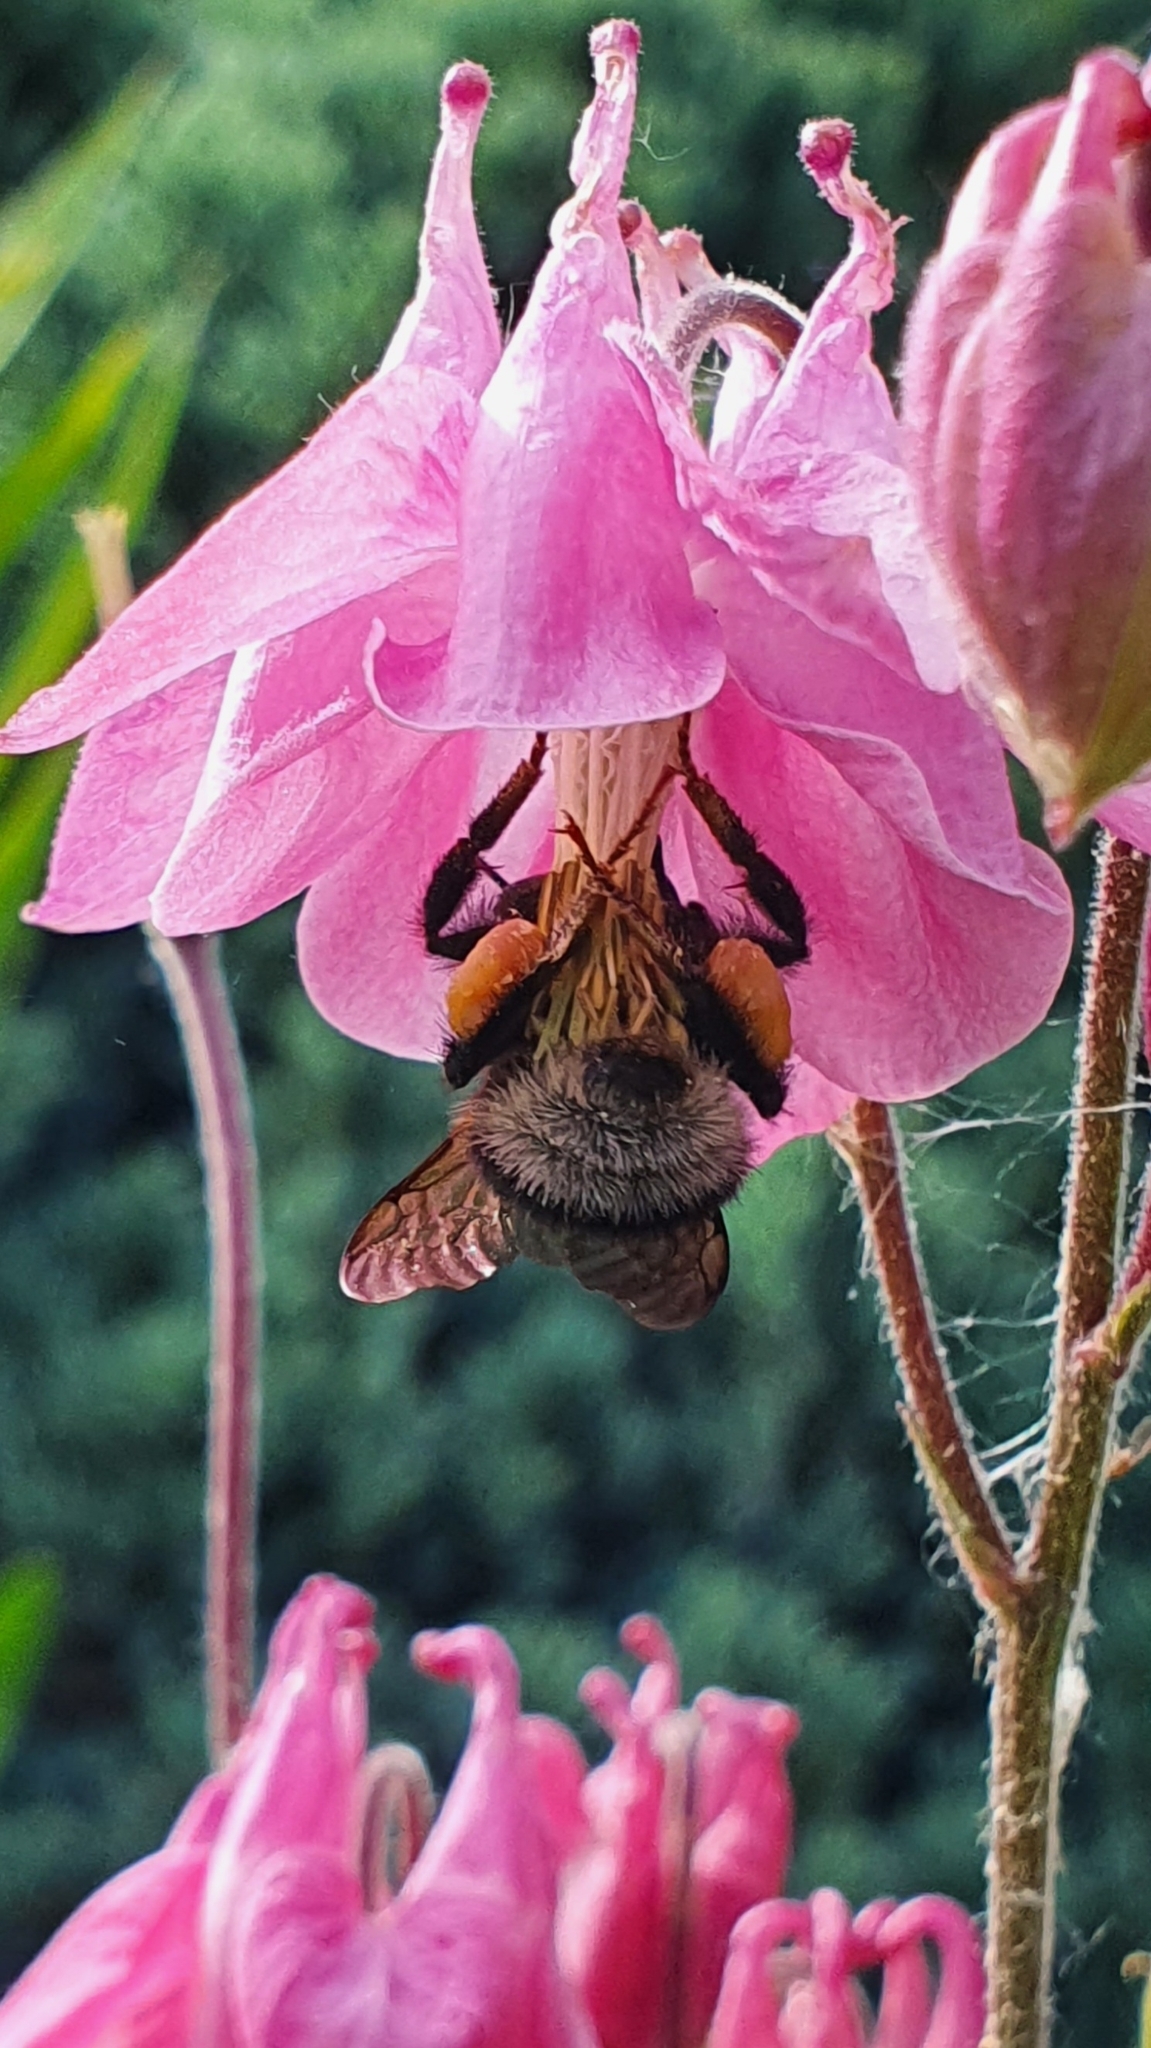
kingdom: Animalia
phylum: Arthropoda
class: Insecta
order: Hymenoptera
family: Apidae
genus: Bombus
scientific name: Bombus hortorum
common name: Garden bumblebee
